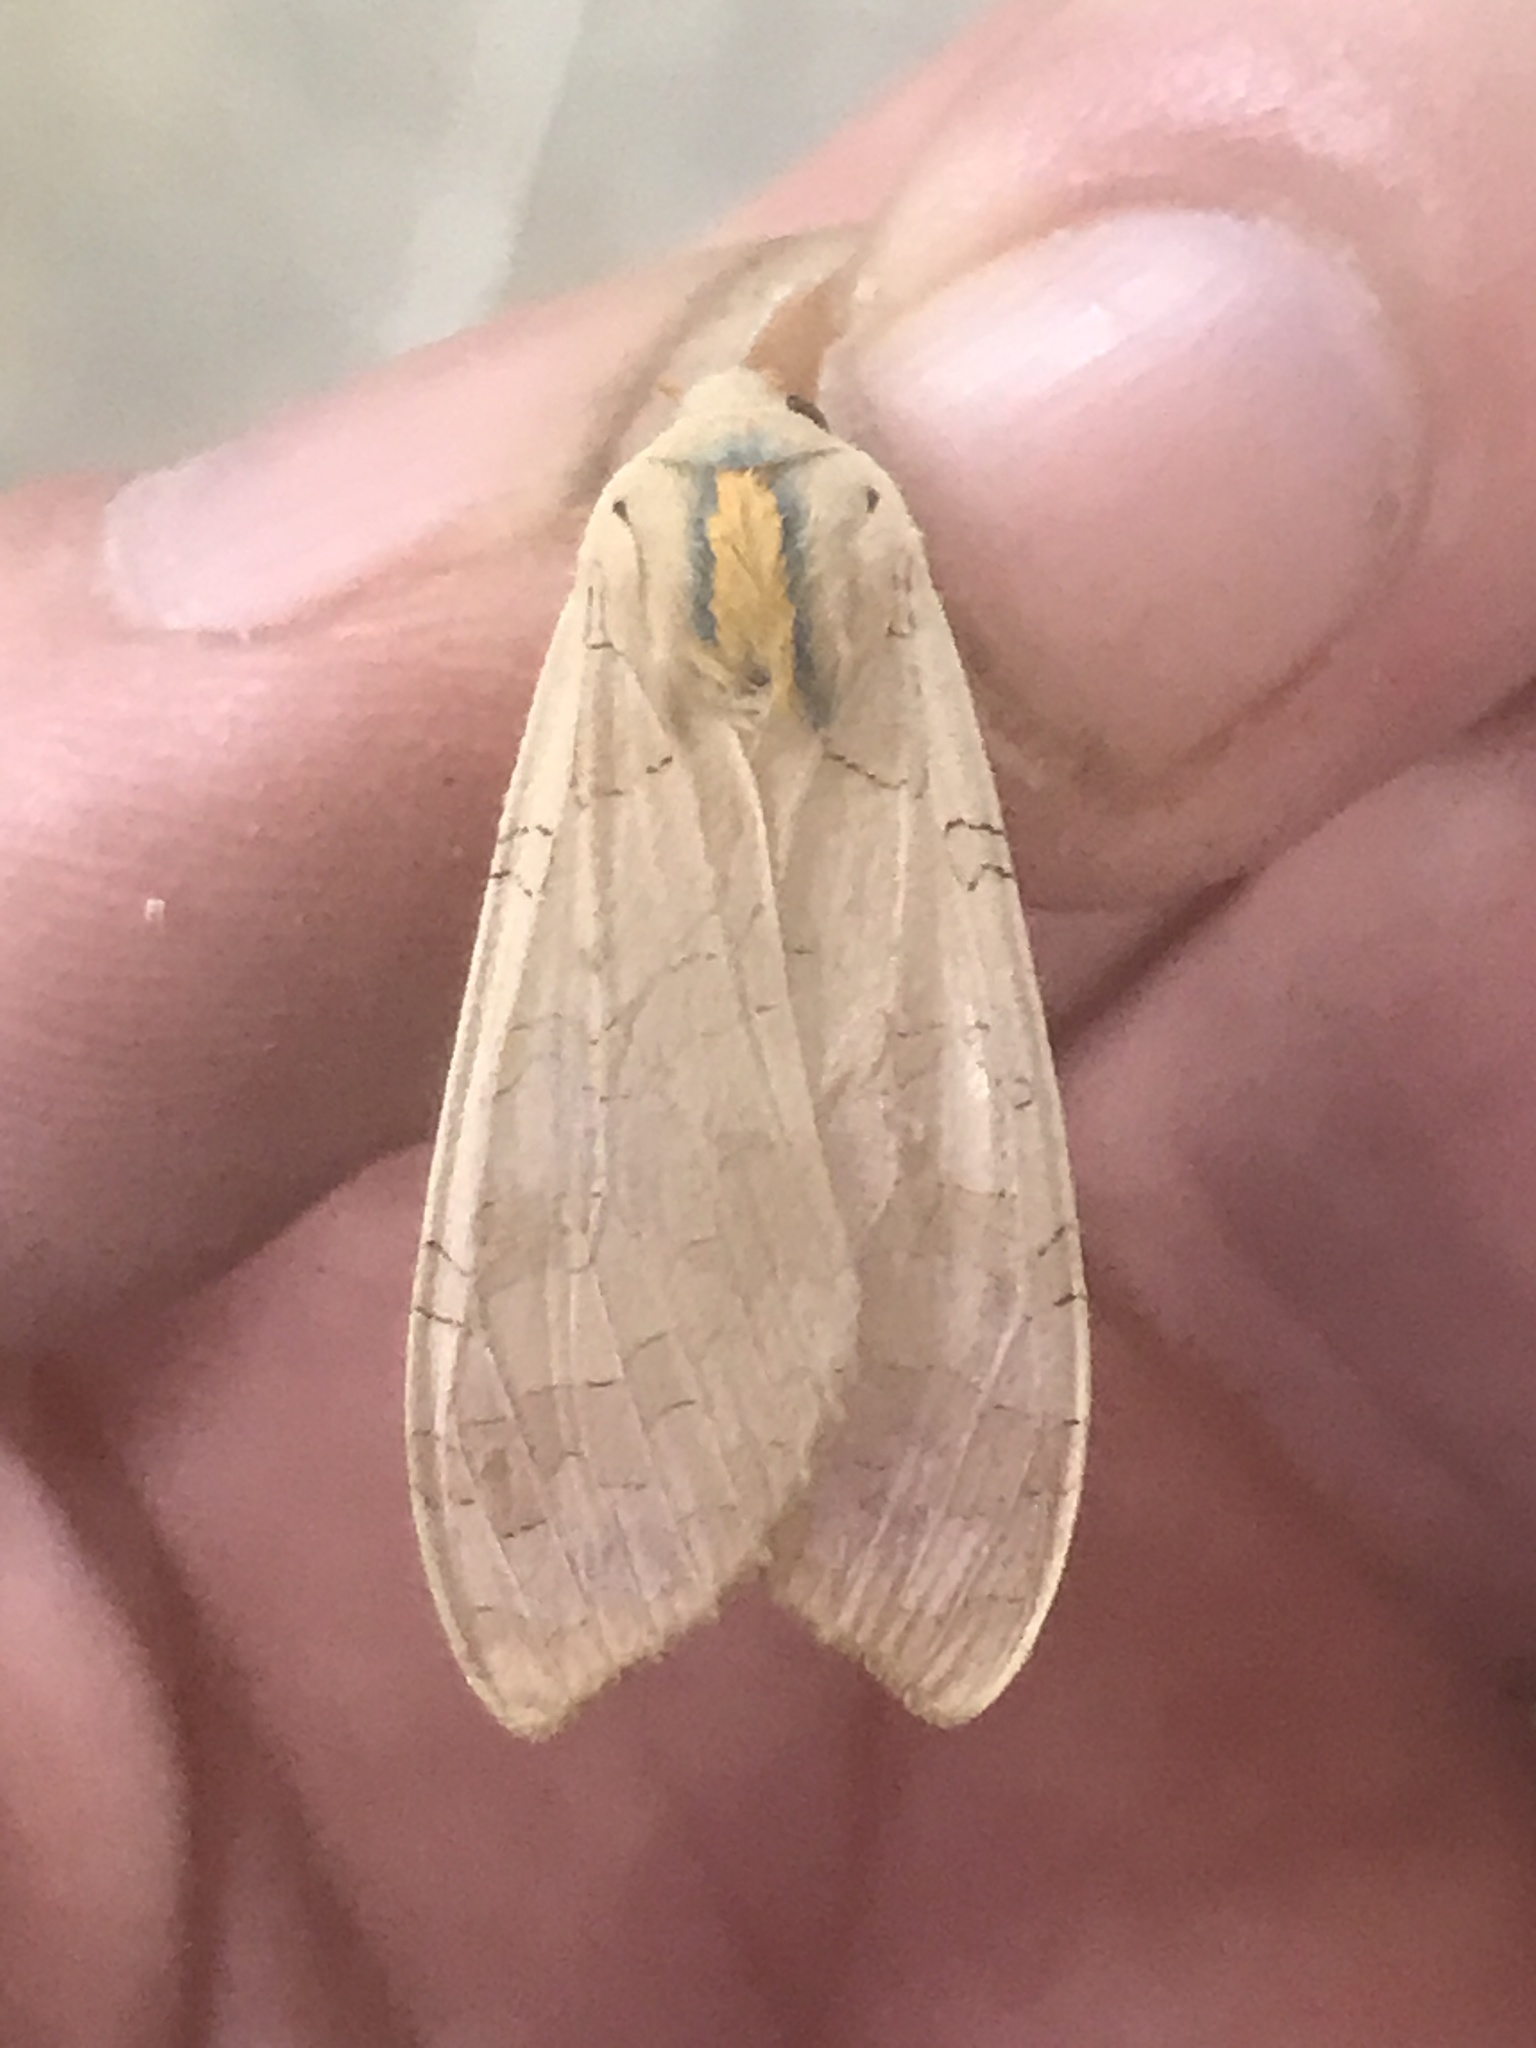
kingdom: Animalia
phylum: Arthropoda
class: Insecta
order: Lepidoptera
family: Erebidae
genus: Halysidota
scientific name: Halysidota
